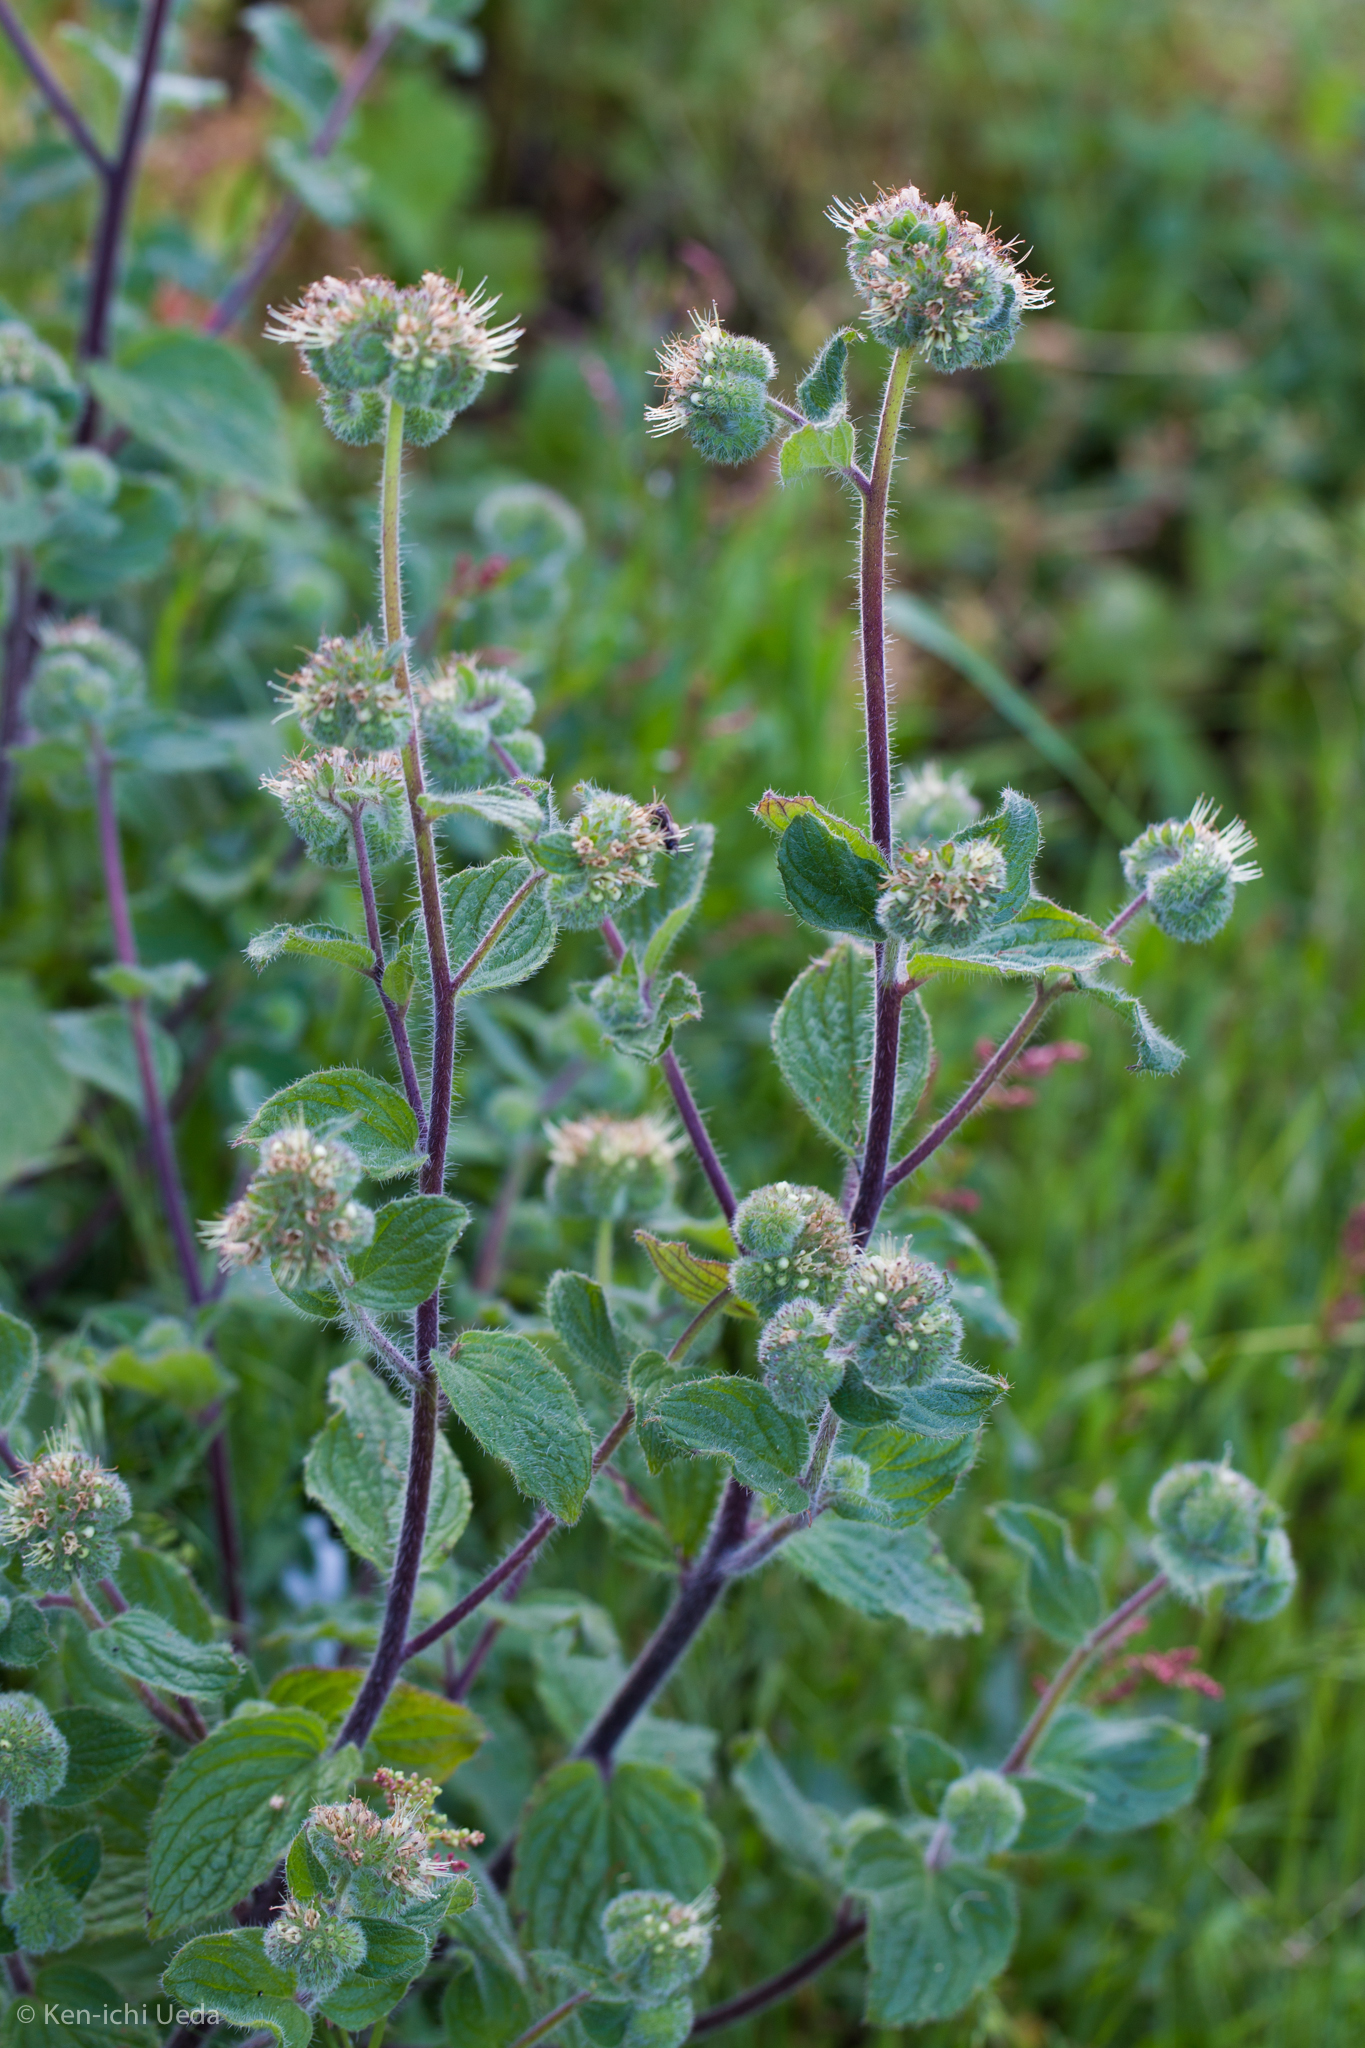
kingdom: Plantae
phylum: Tracheophyta
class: Magnoliopsida
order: Boraginales
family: Hydrophyllaceae
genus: Phacelia
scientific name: Phacelia nemoralis
